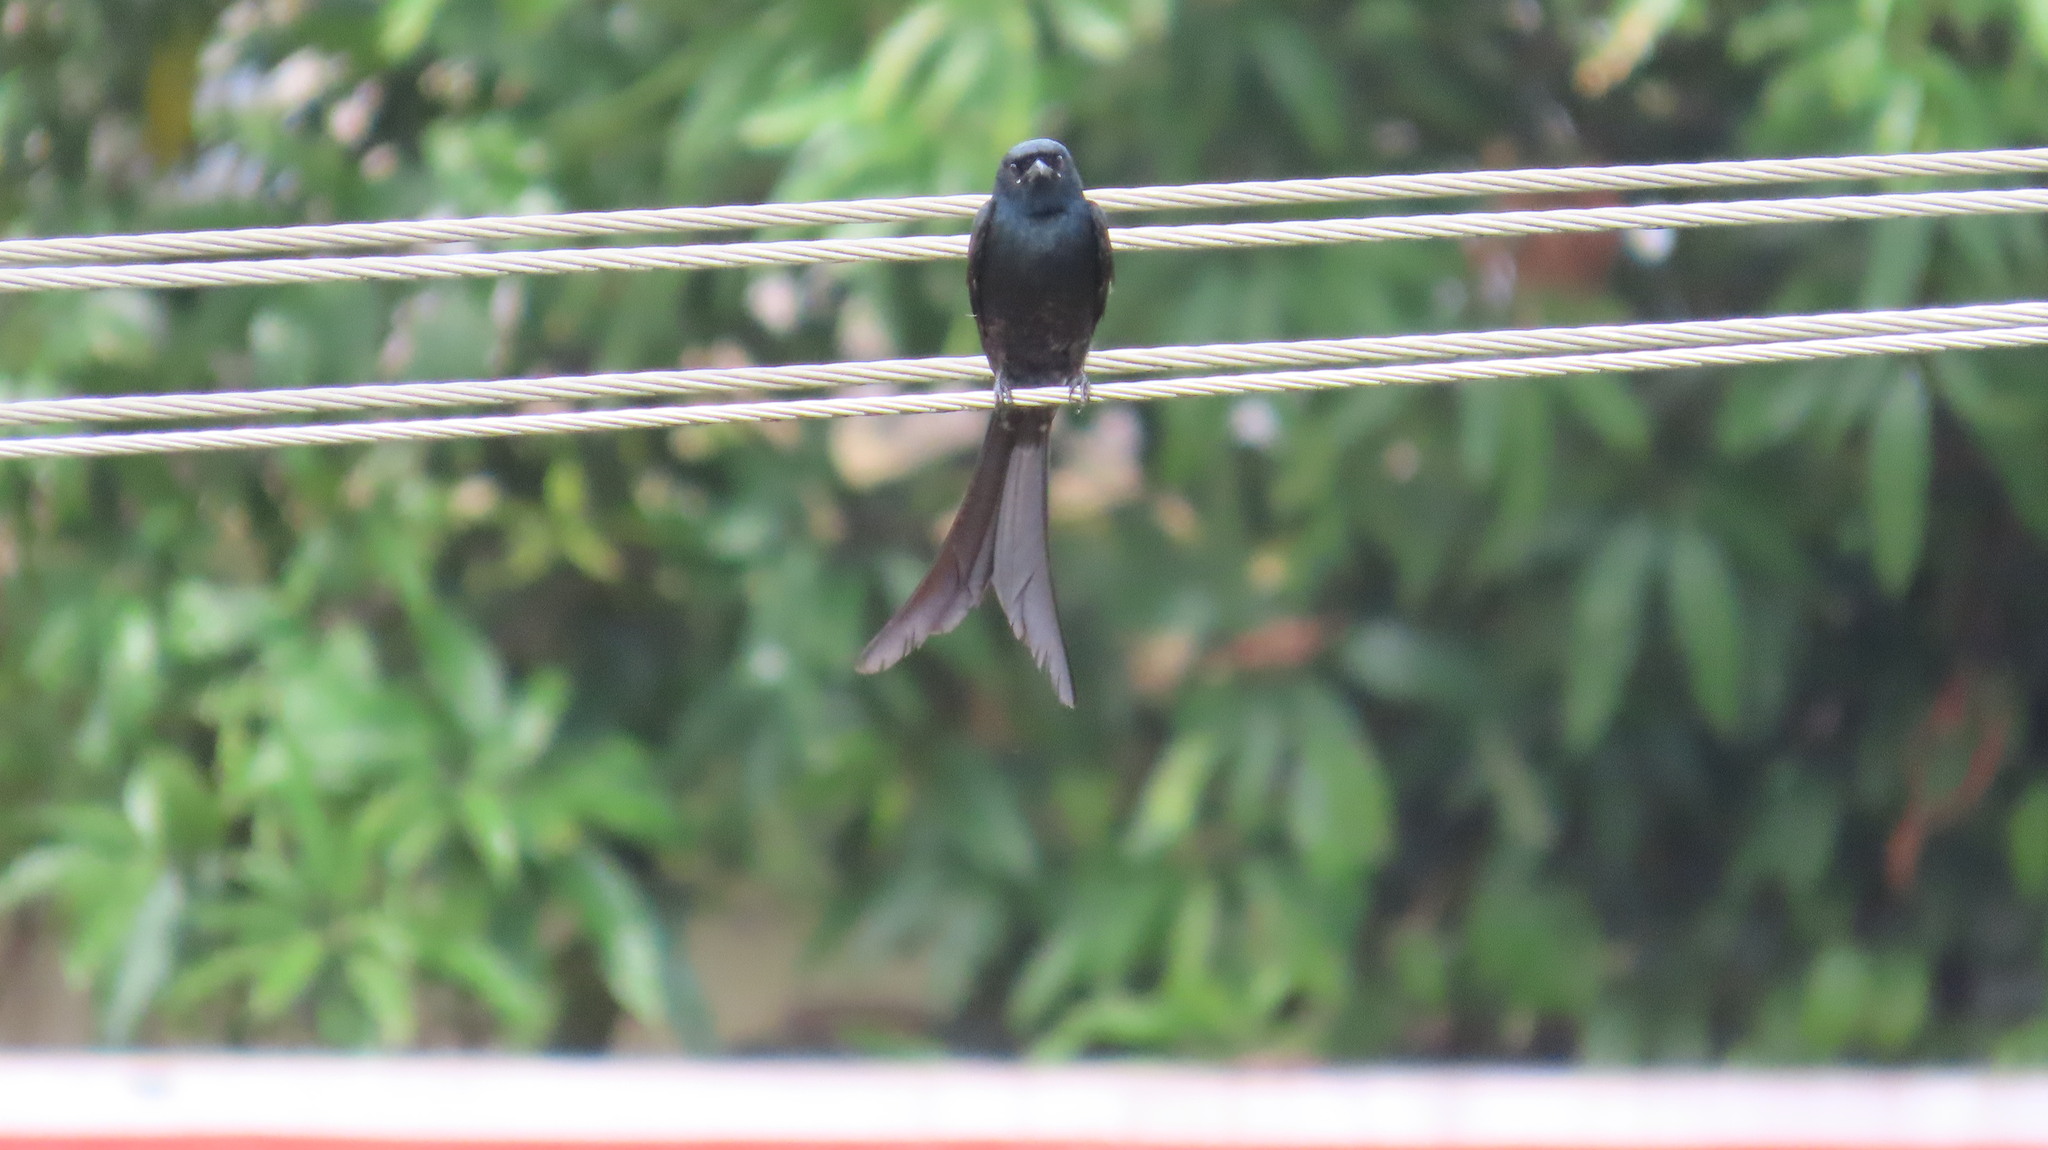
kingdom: Animalia
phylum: Chordata
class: Aves
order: Passeriformes
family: Dicruridae
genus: Dicrurus
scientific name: Dicrurus macrocercus
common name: Black drongo
